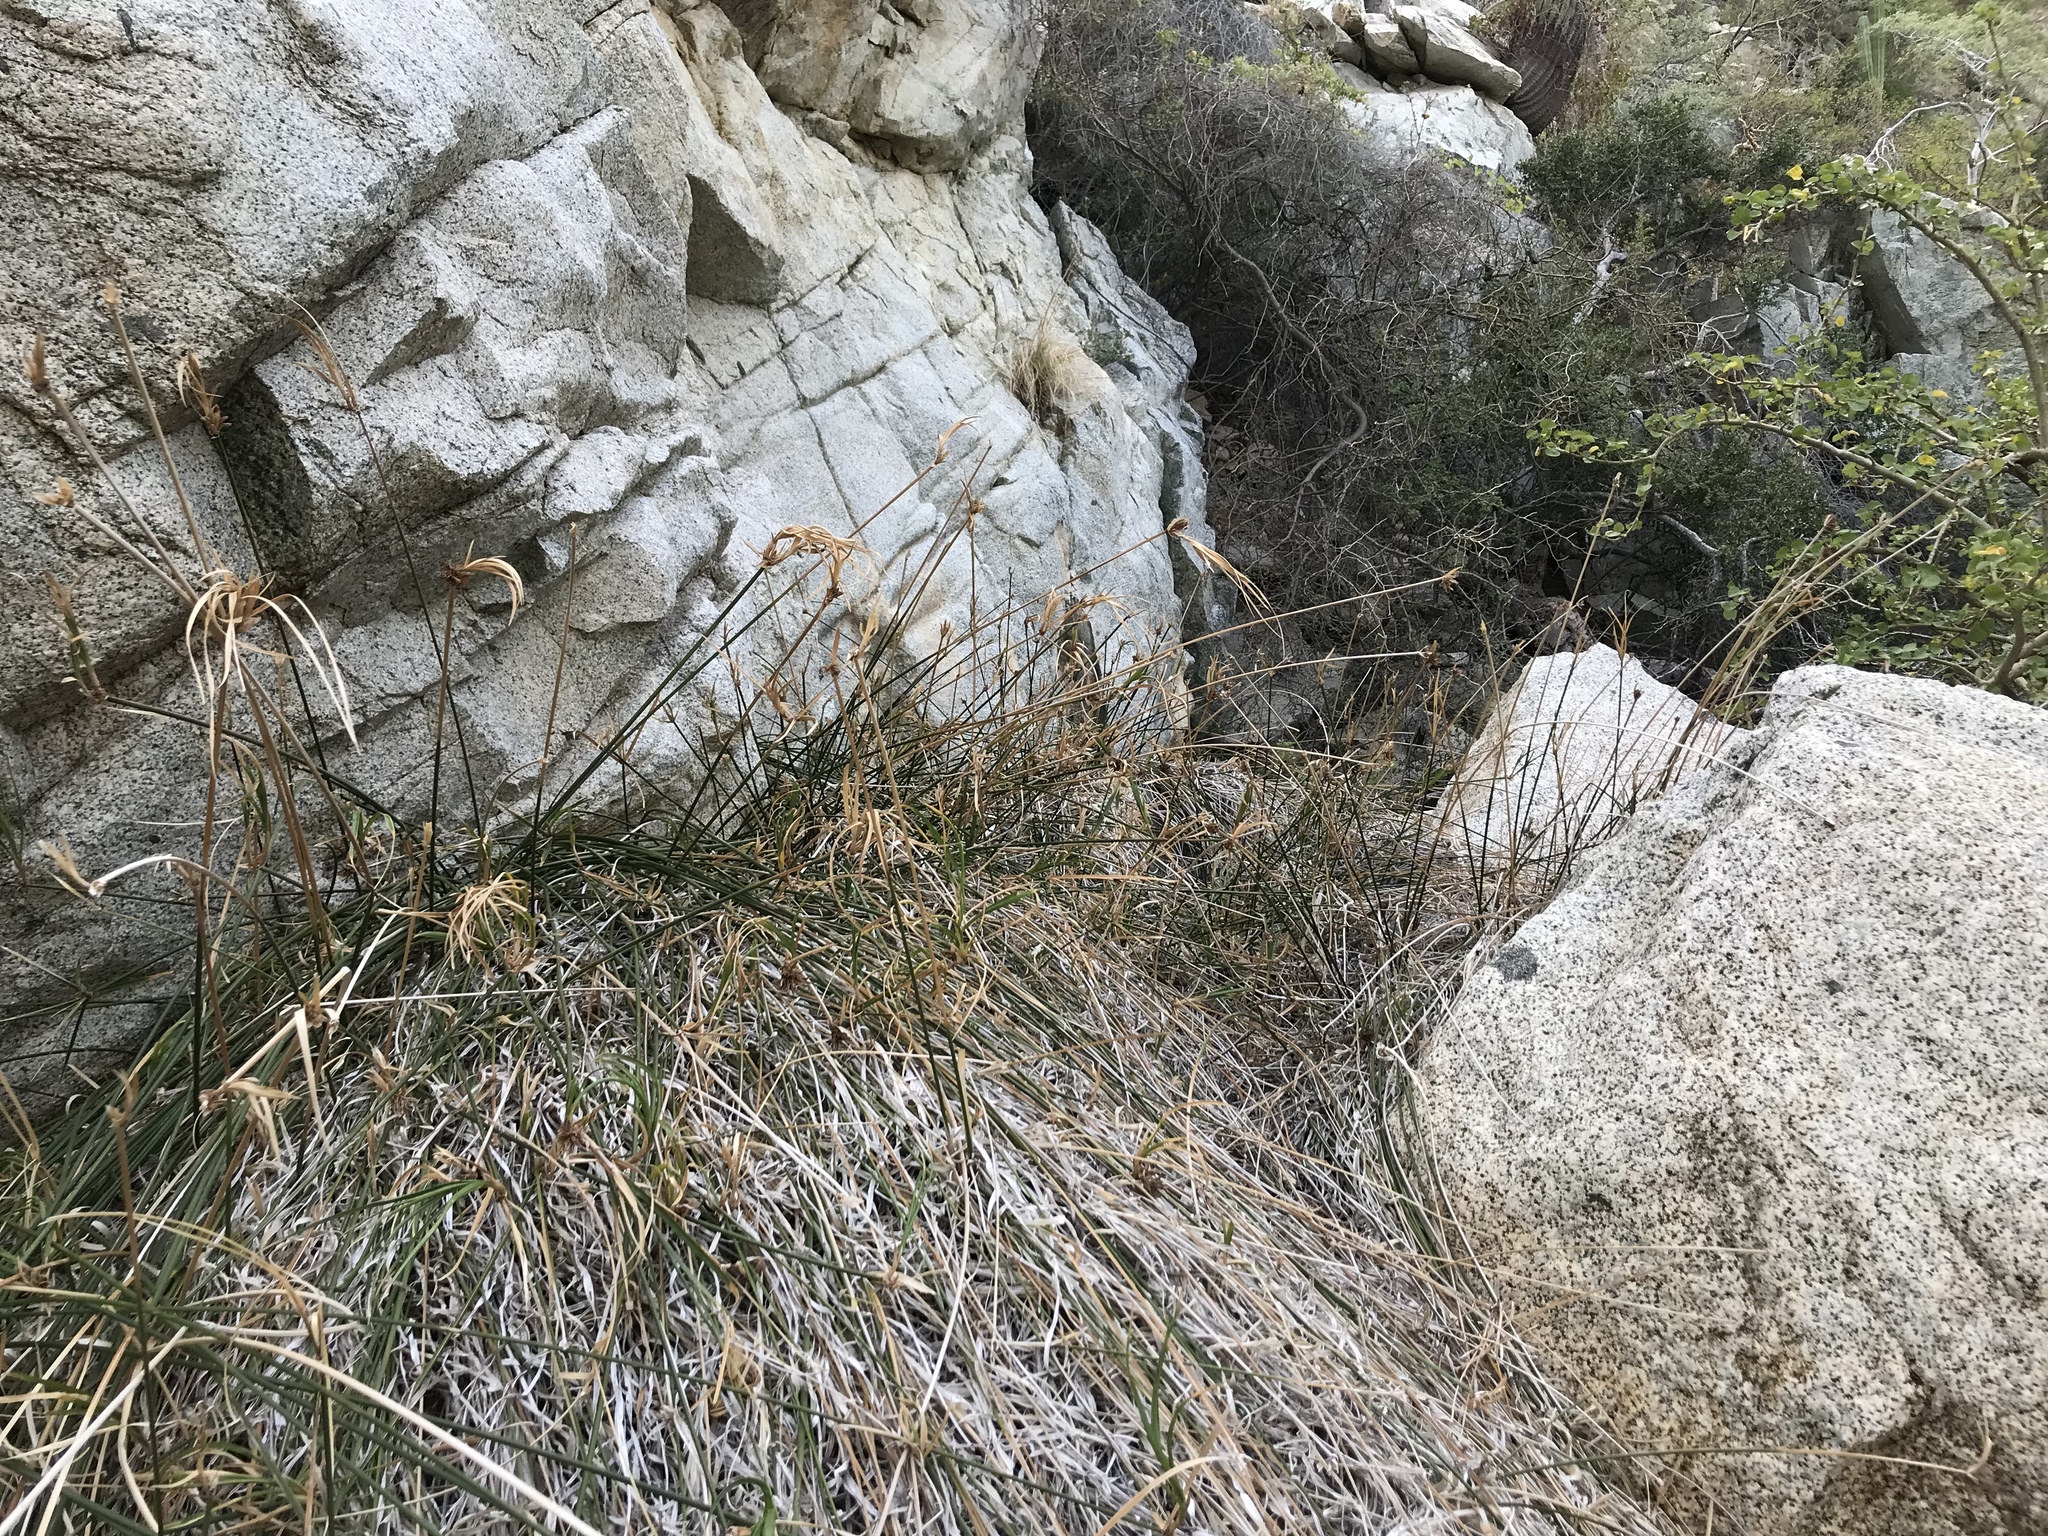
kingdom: Plantae
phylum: Tracheophyta
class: Liliopsida
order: Poales
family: Cyperaceae
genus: Cyperus
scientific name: Cyperus dioicus
